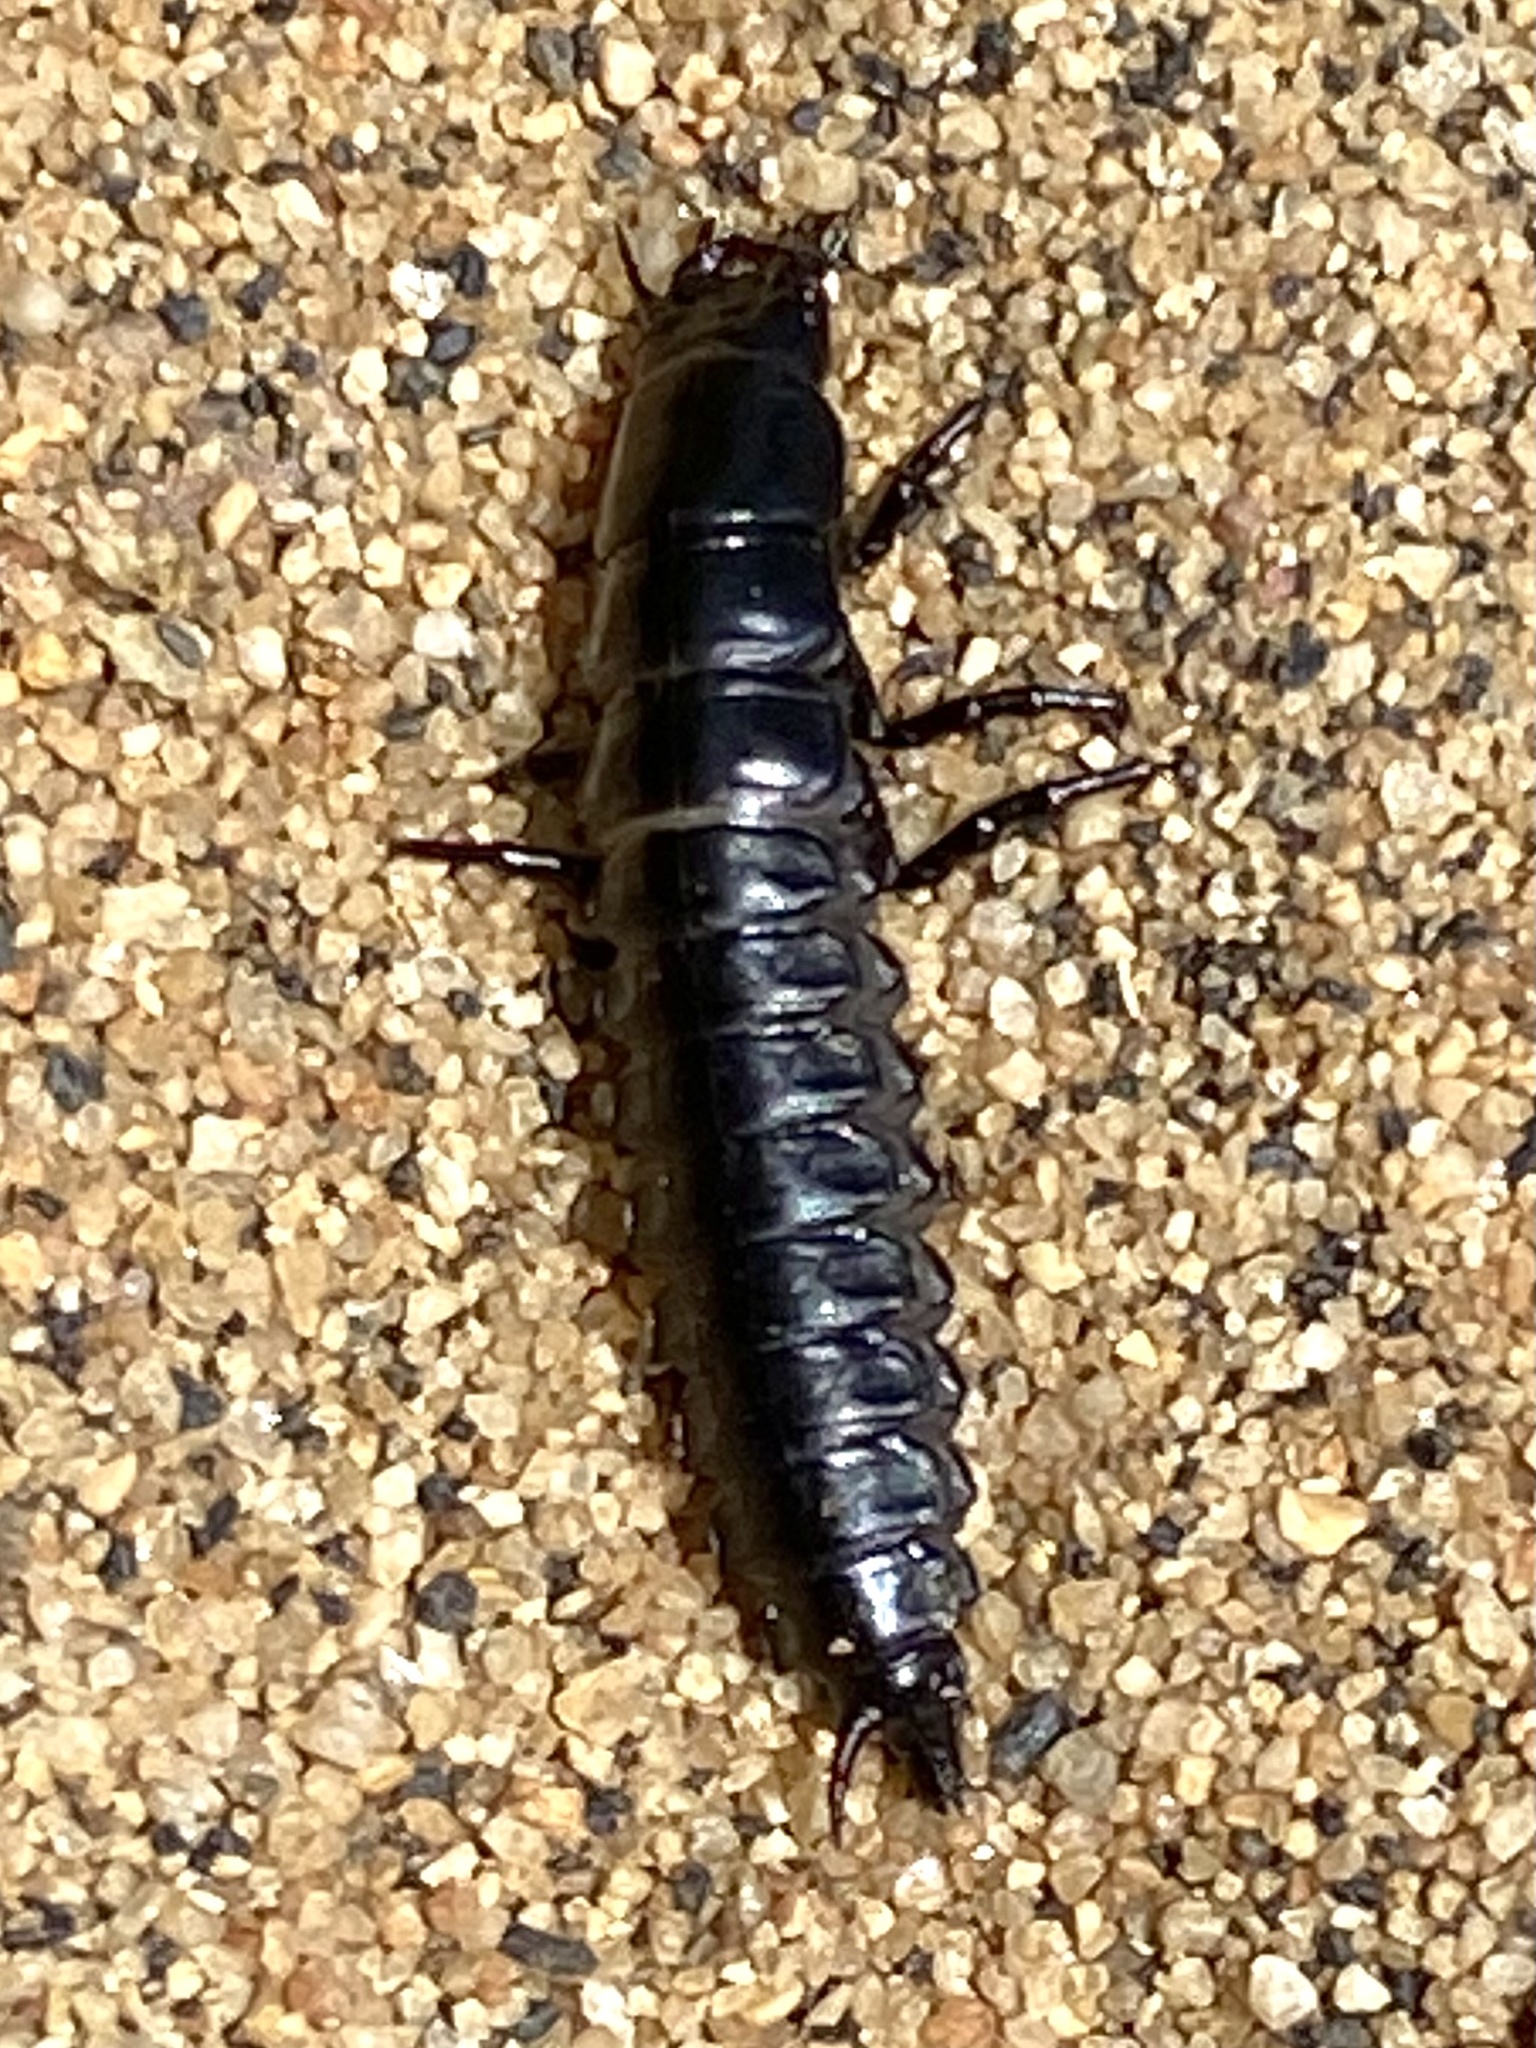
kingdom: Animalia
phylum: Arthropoda
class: Insecta
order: Coleoptera
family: Carabidae
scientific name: Carabidae
